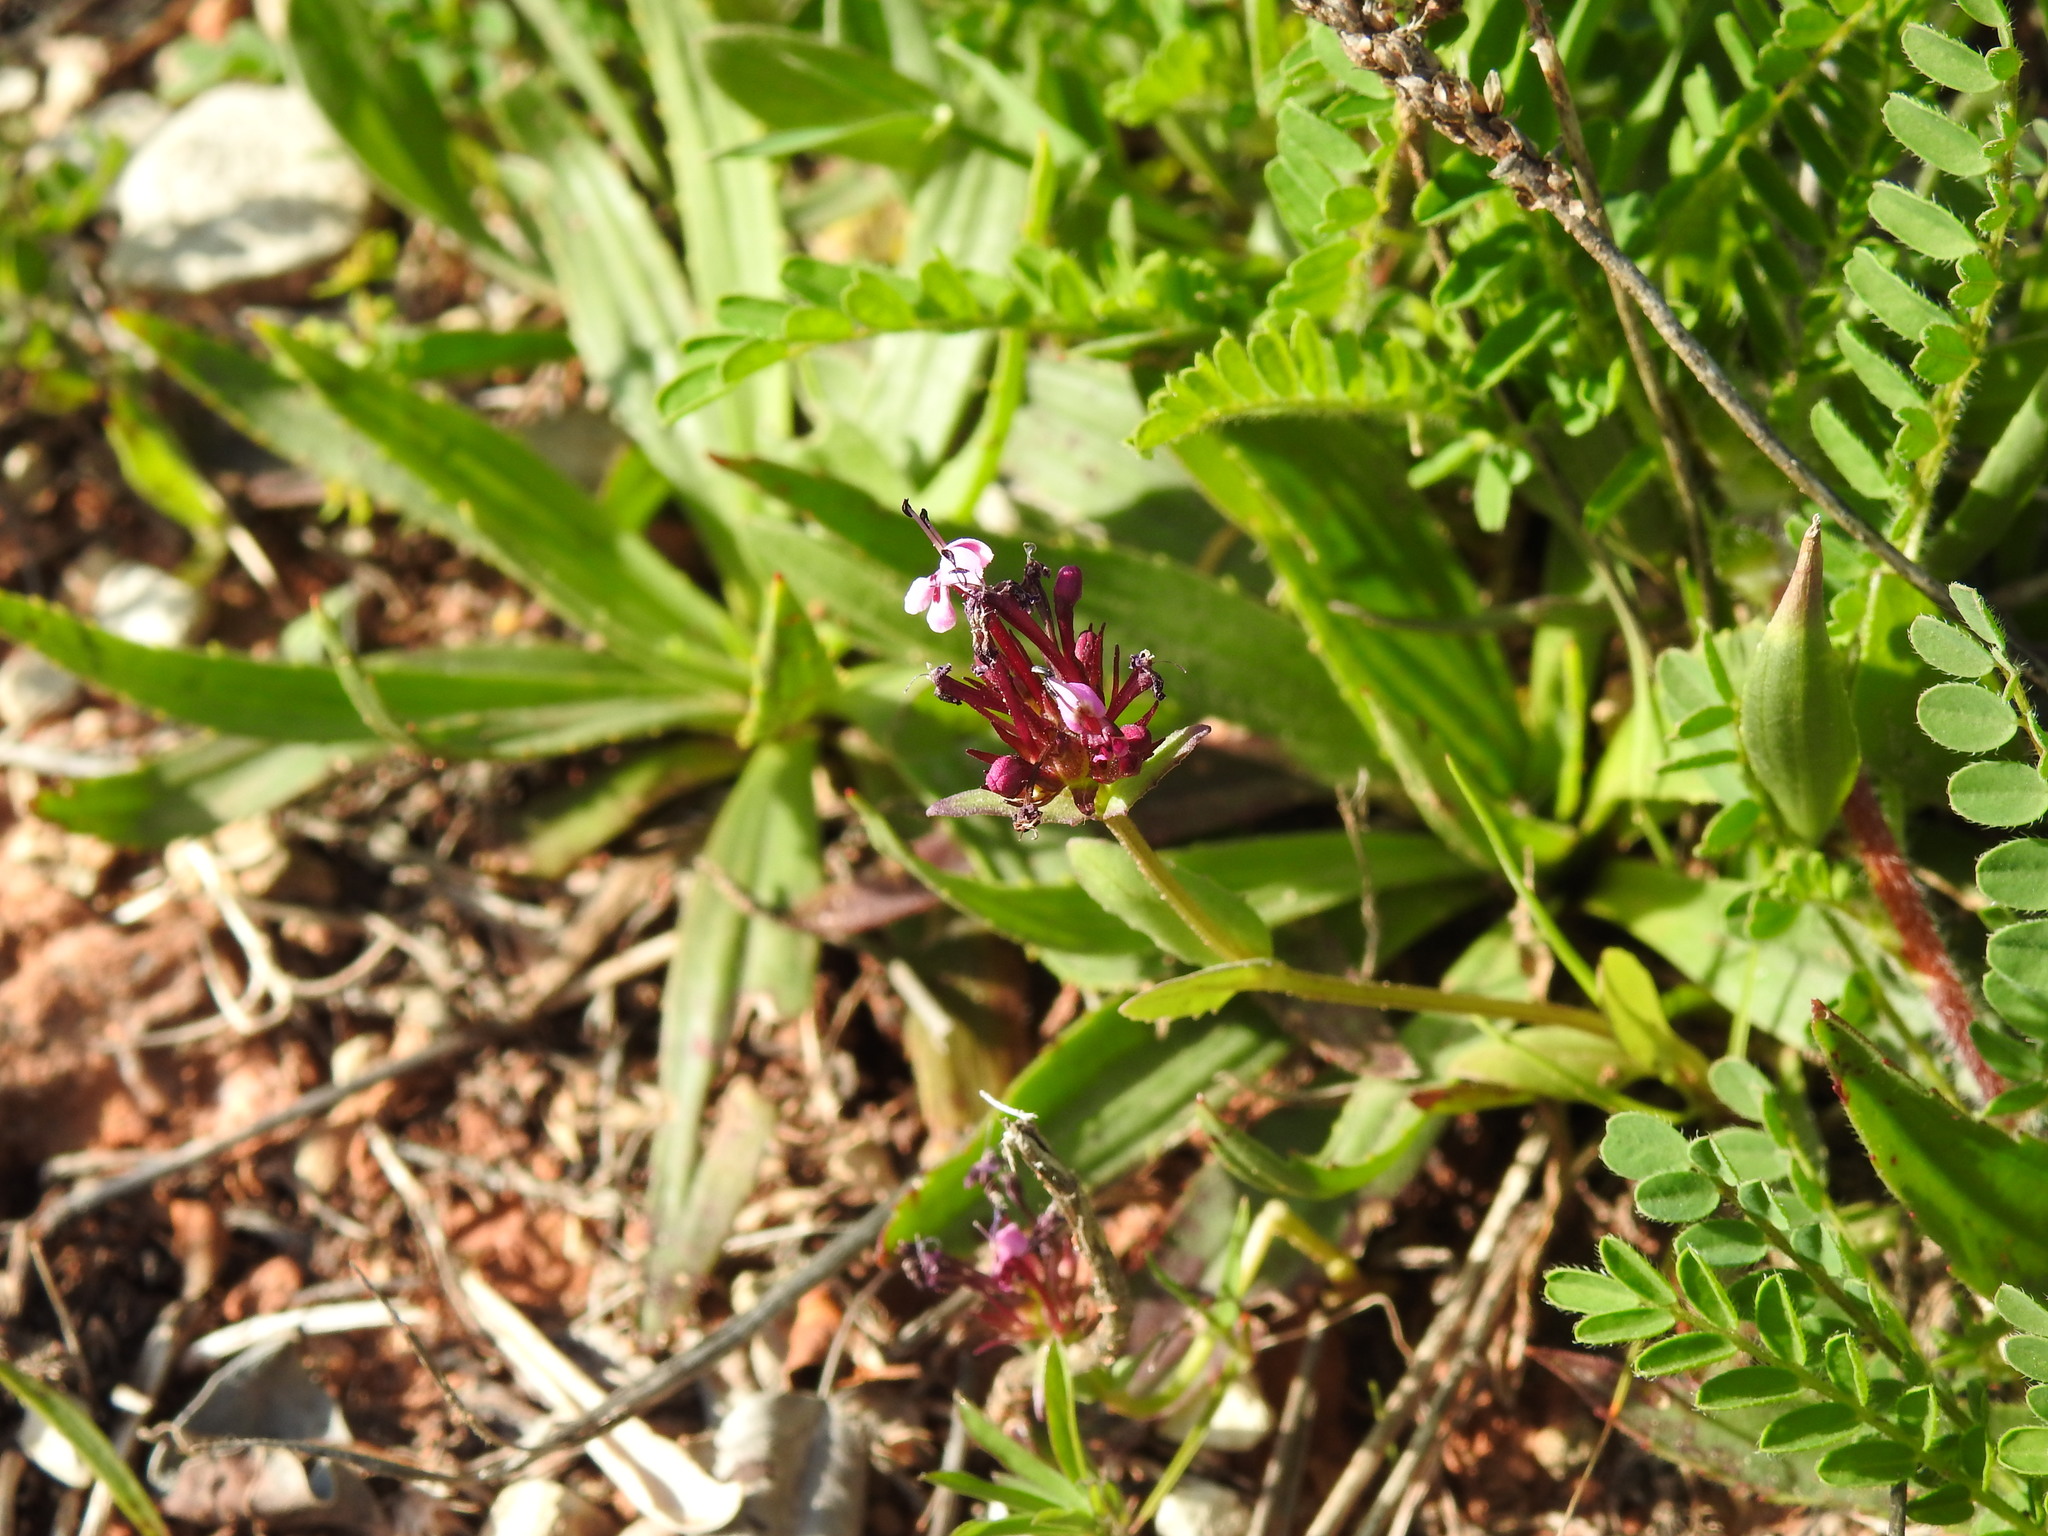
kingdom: Plantae
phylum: Tracheophyta
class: Magnoliopsida
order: Dipsacales
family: Caprifoliaceae
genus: Fedia
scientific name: Fedia cornucopiae
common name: Horn-of-plenty
